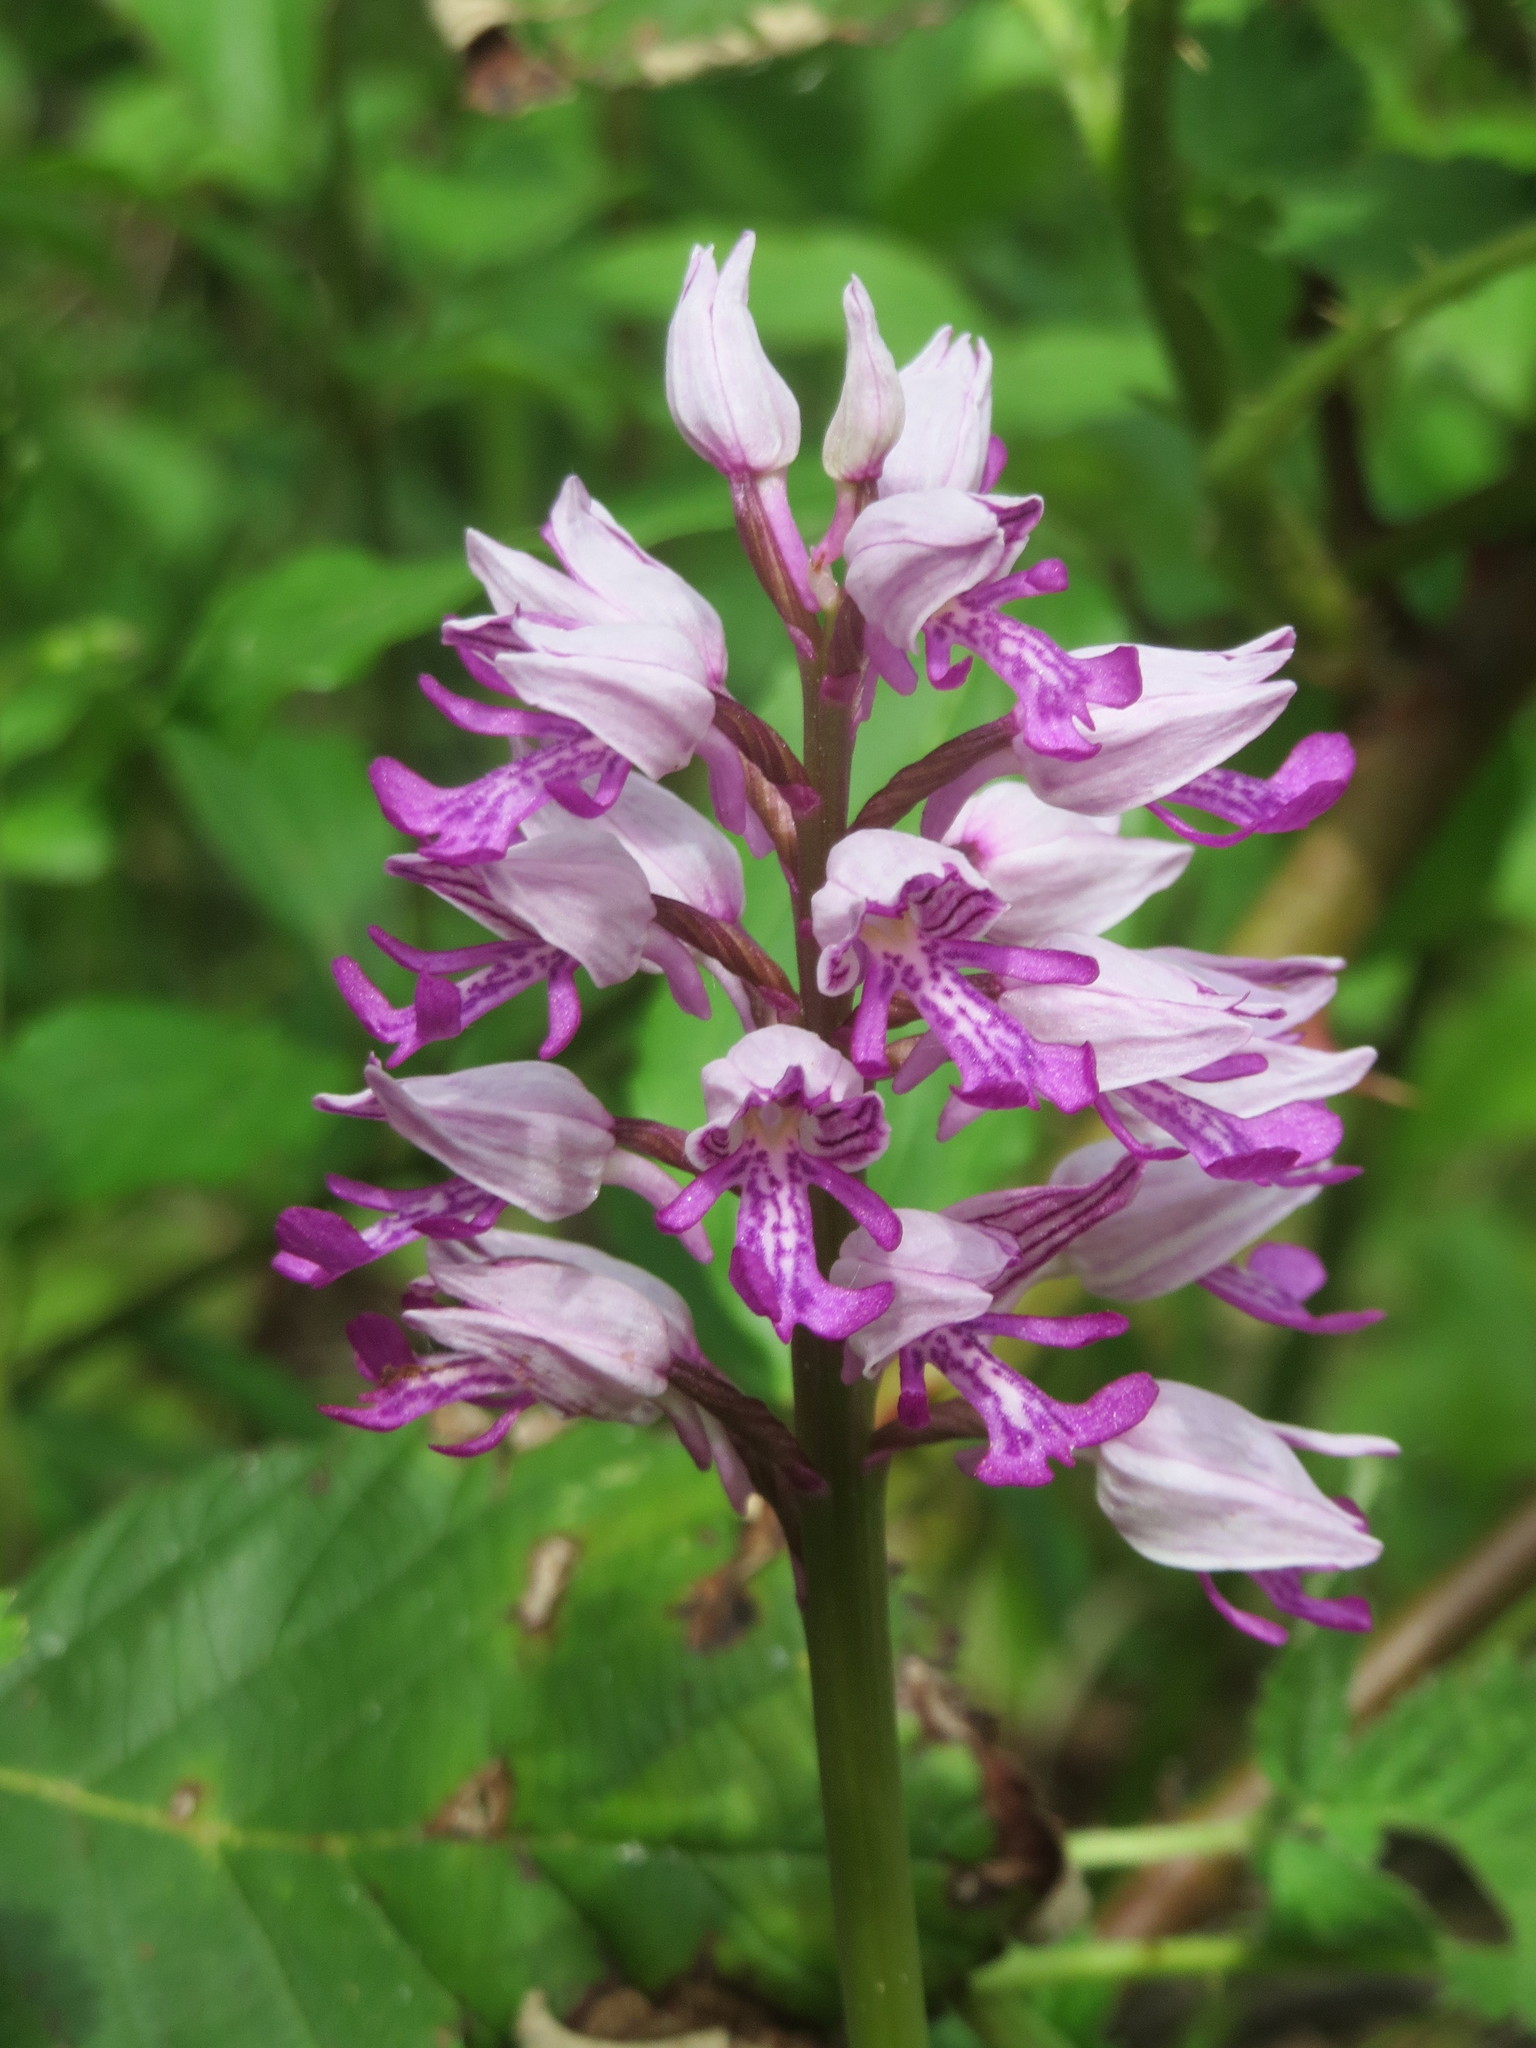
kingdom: Plantae
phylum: Tracheophyta
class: Liliopsida
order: Asparagales
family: Orchidaceae
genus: Orchis
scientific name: Orchis militaris
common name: Military orchid
